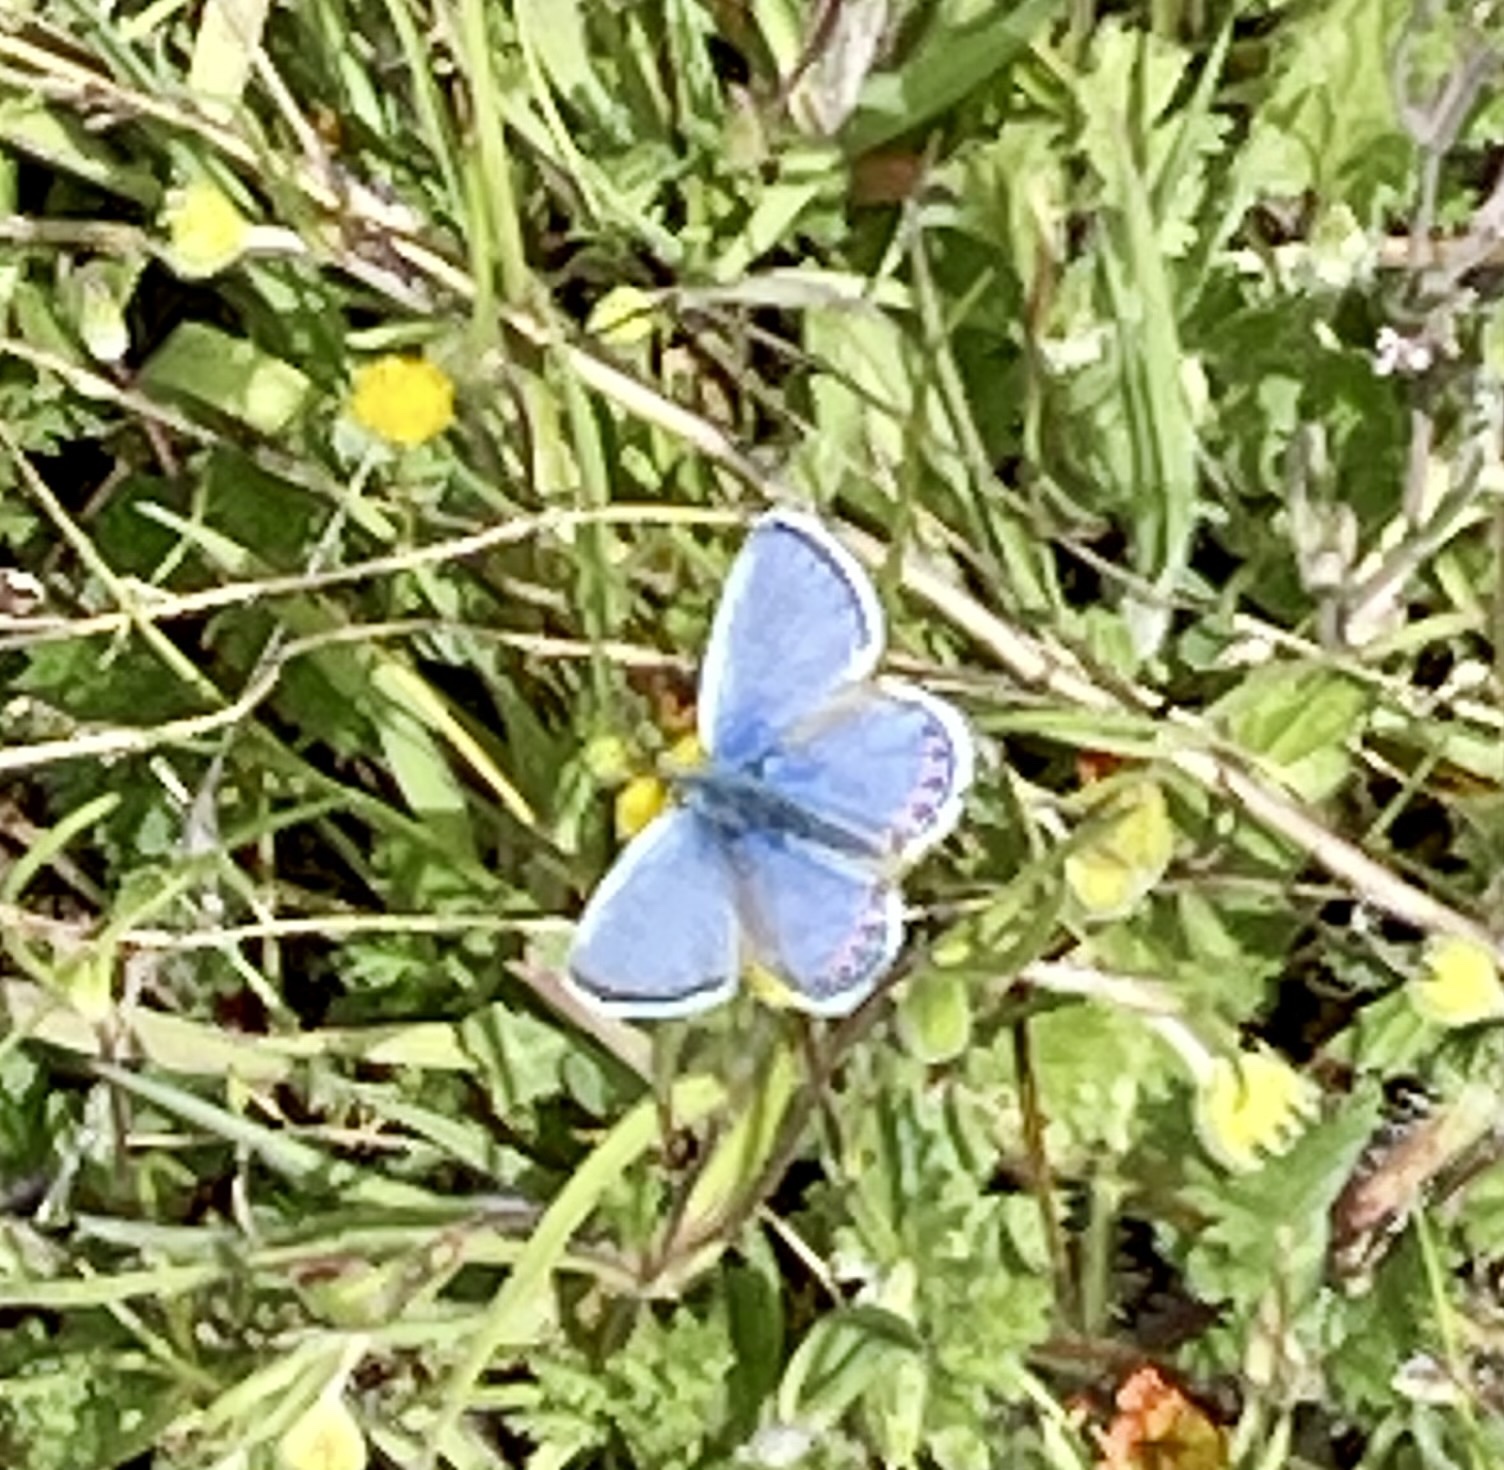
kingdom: Animalia
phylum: Arthropoda
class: Insecta
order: Lepidoptera
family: Lycaenidae
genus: Icaricia
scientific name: Icaricia acmon
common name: Acmon blue
